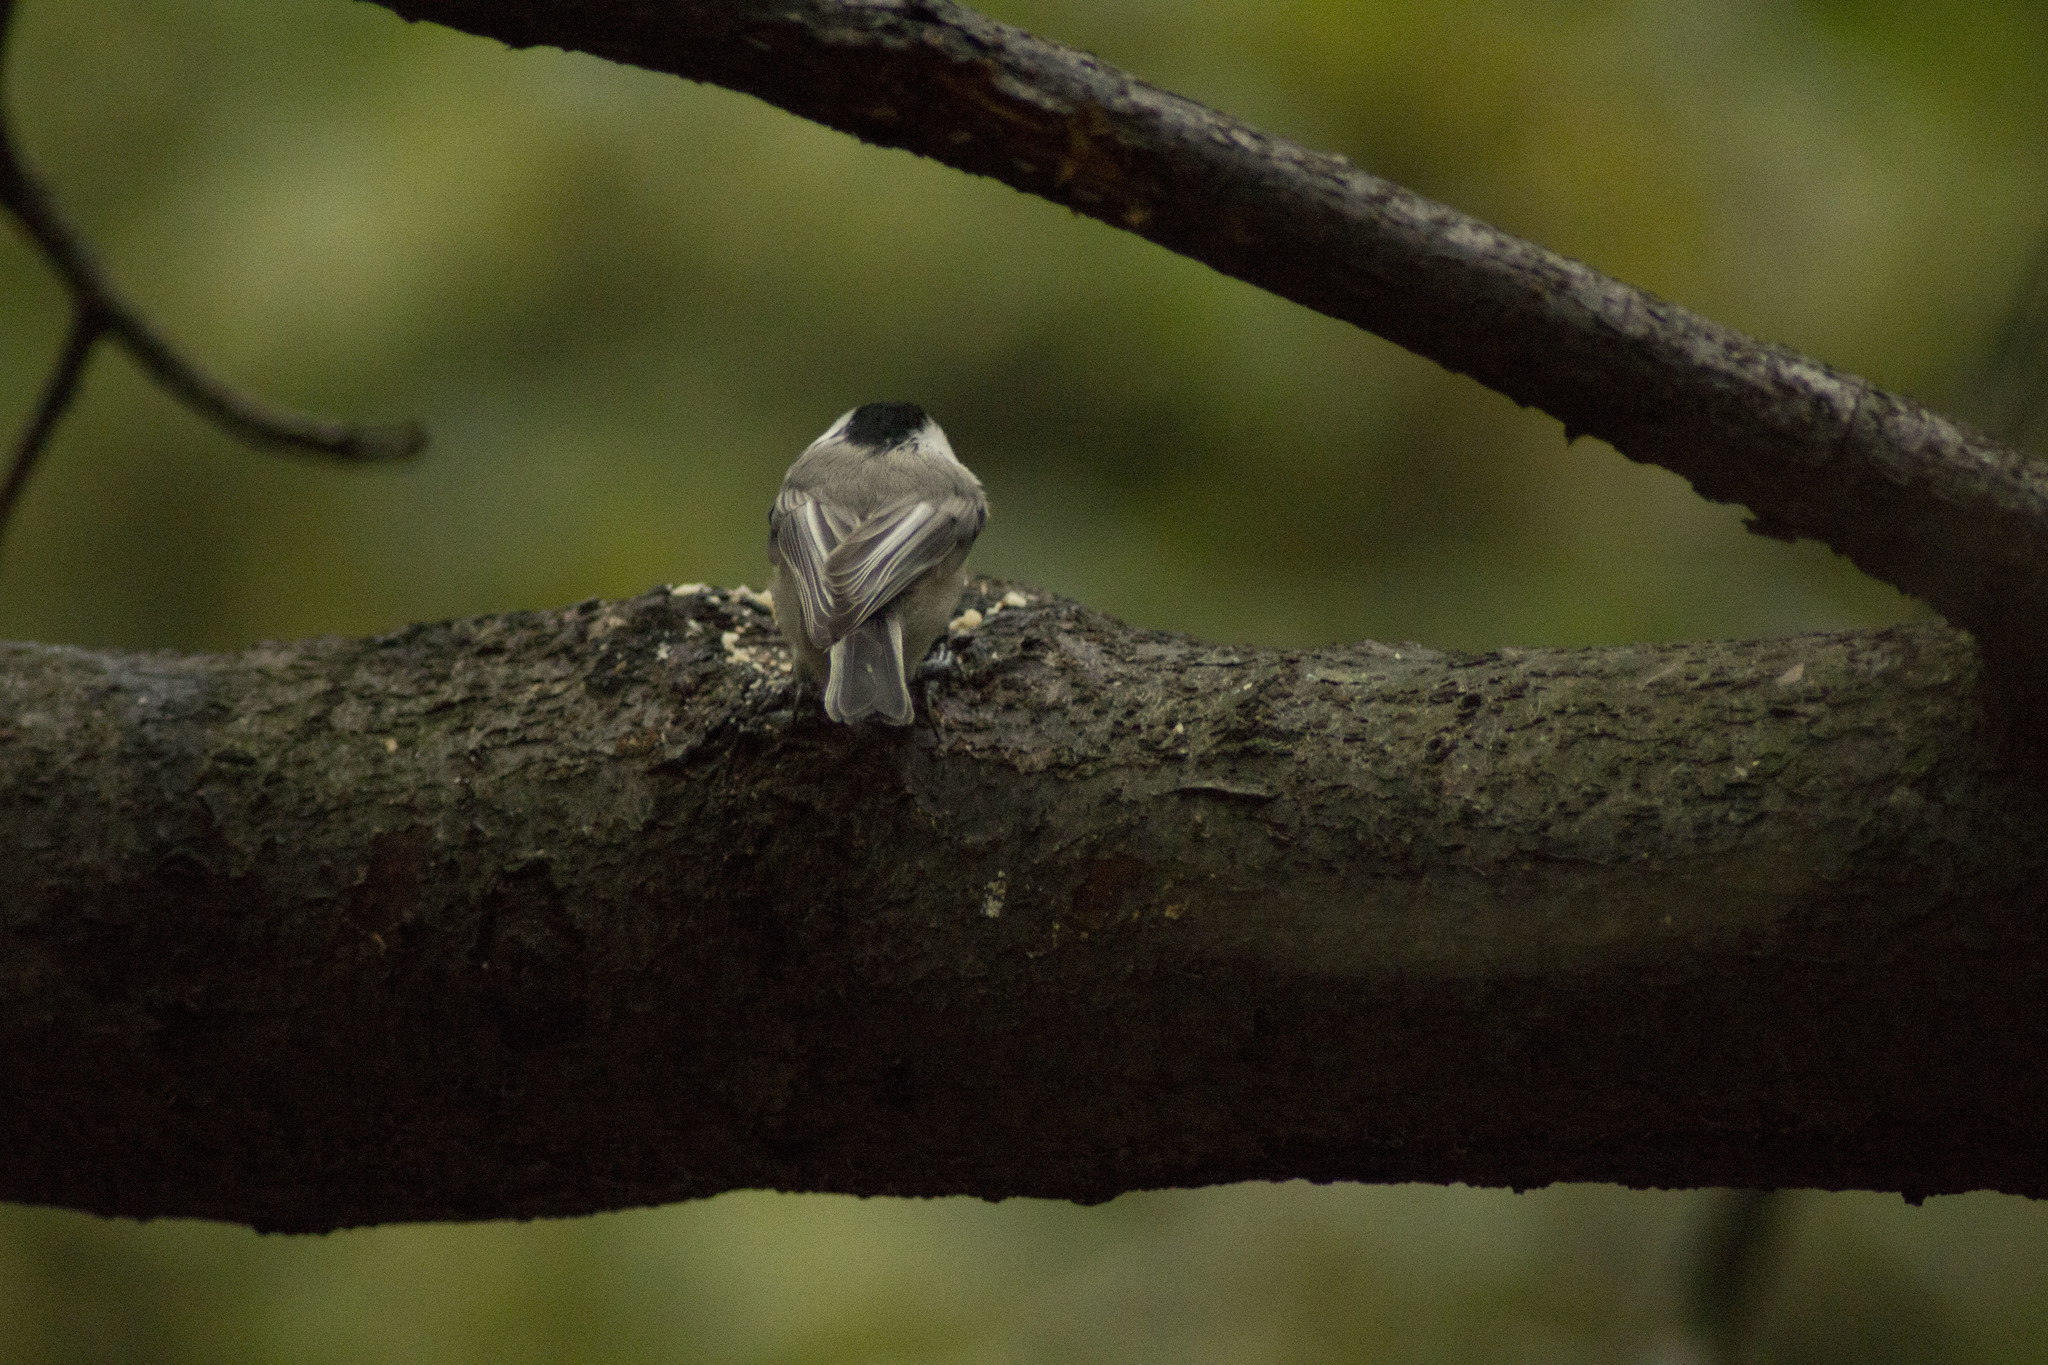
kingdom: Animalia
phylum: Chordata
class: Aves
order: Passeriformes
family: Paridae
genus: Poecile
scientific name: Poecile montanus
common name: Willow tit
